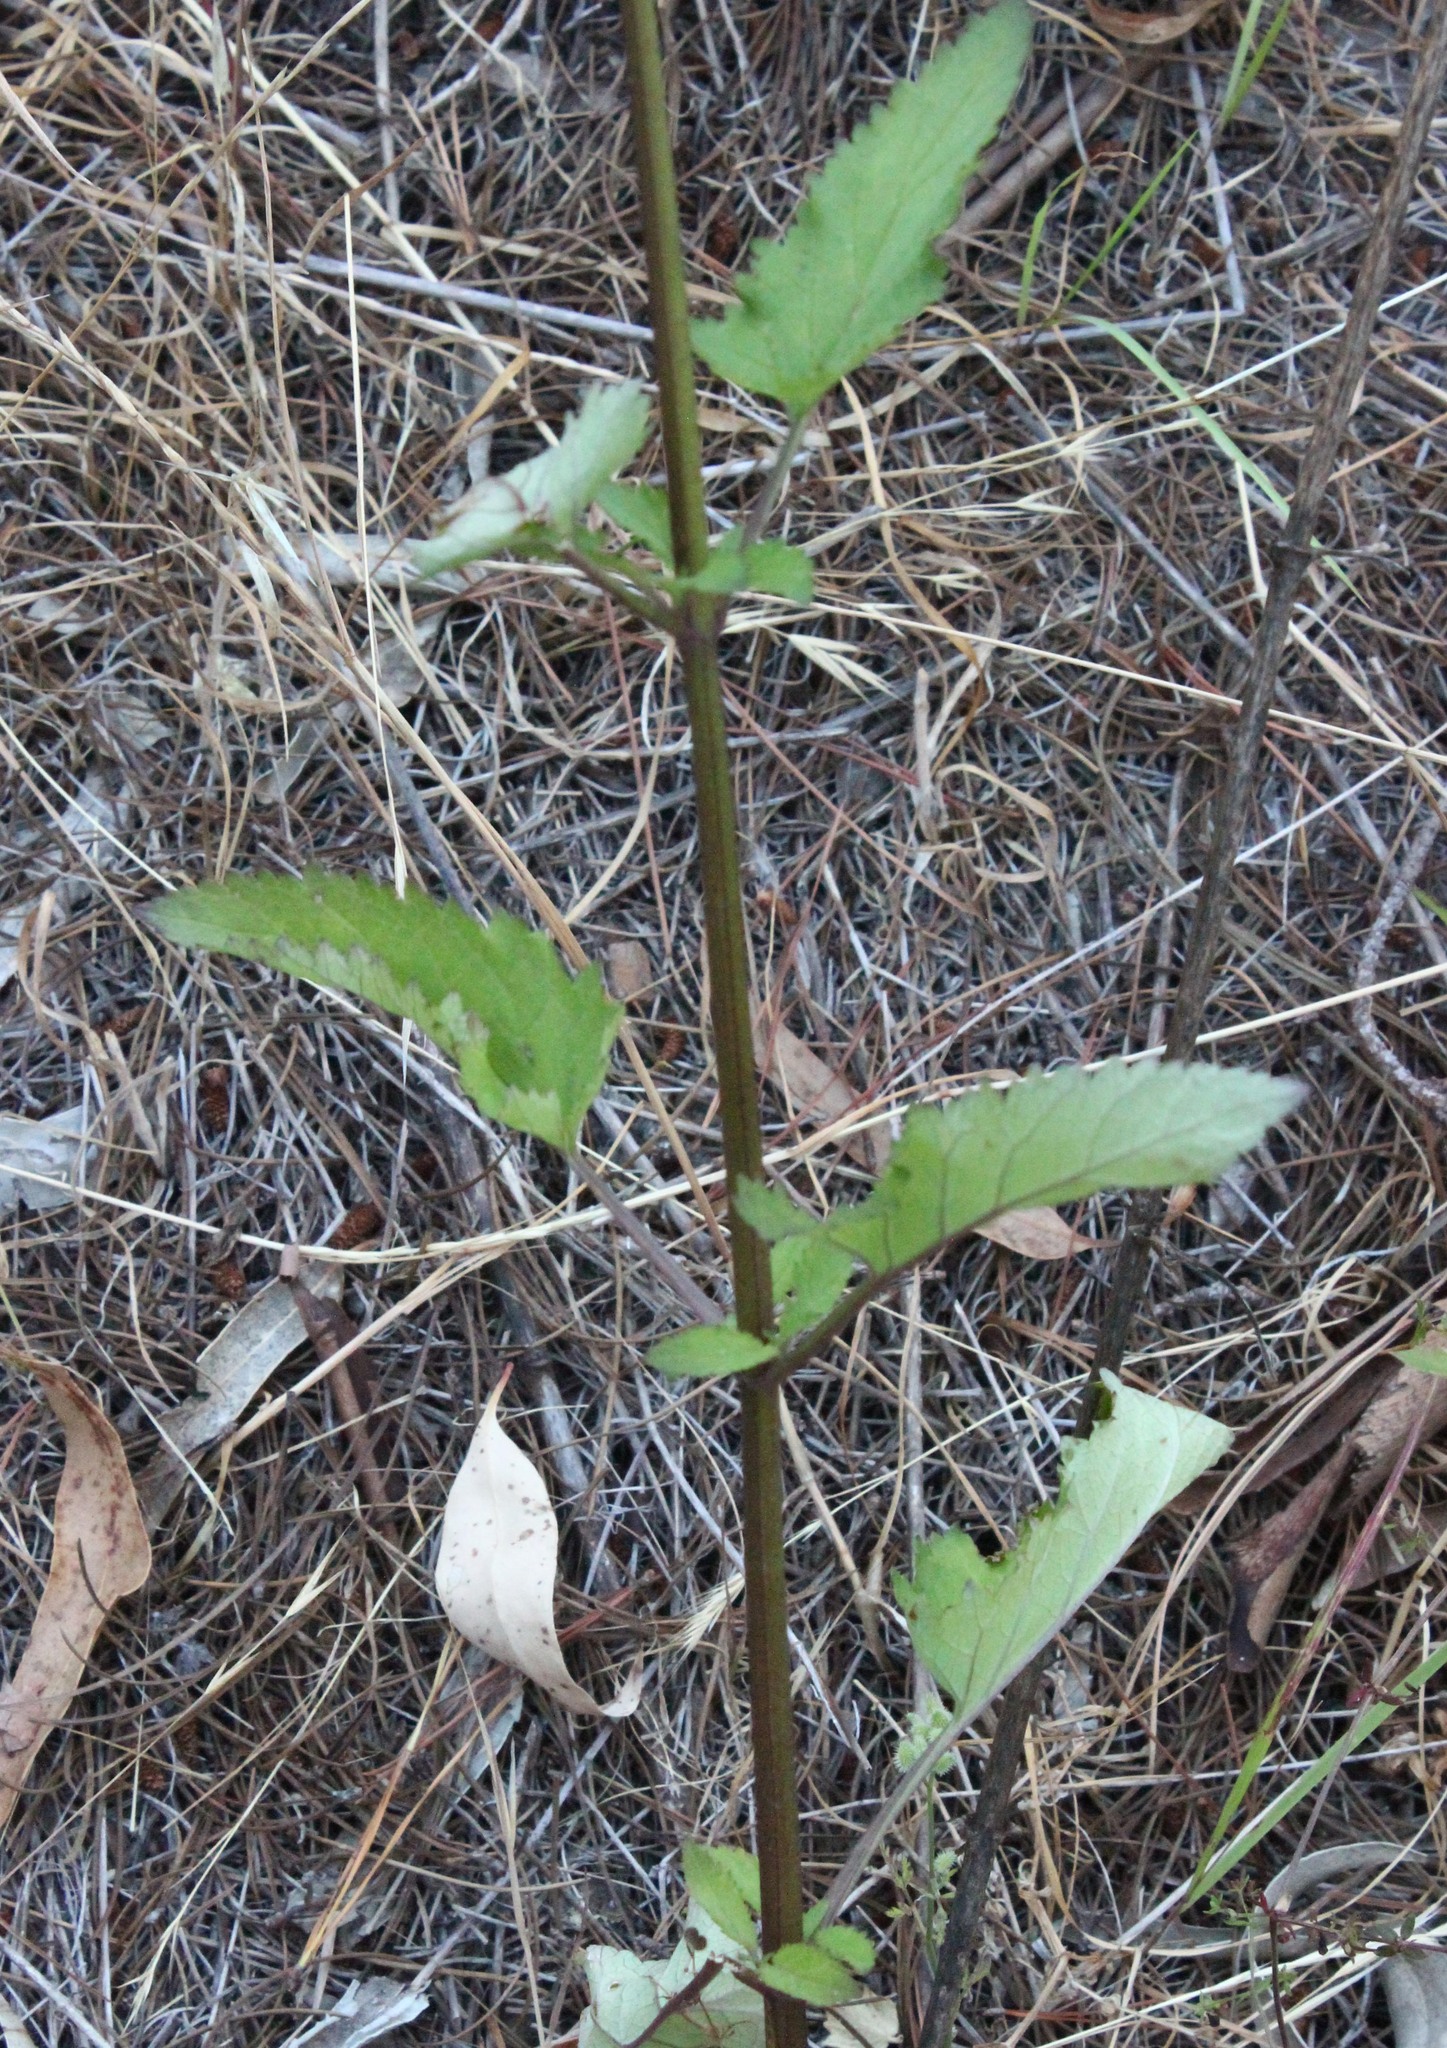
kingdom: Plantae
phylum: Tracheophyta
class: Magnoliopsida
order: Lamiales
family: Scrophulariaceae
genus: Scrophularia
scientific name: Scrophularia californica
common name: California figwort
